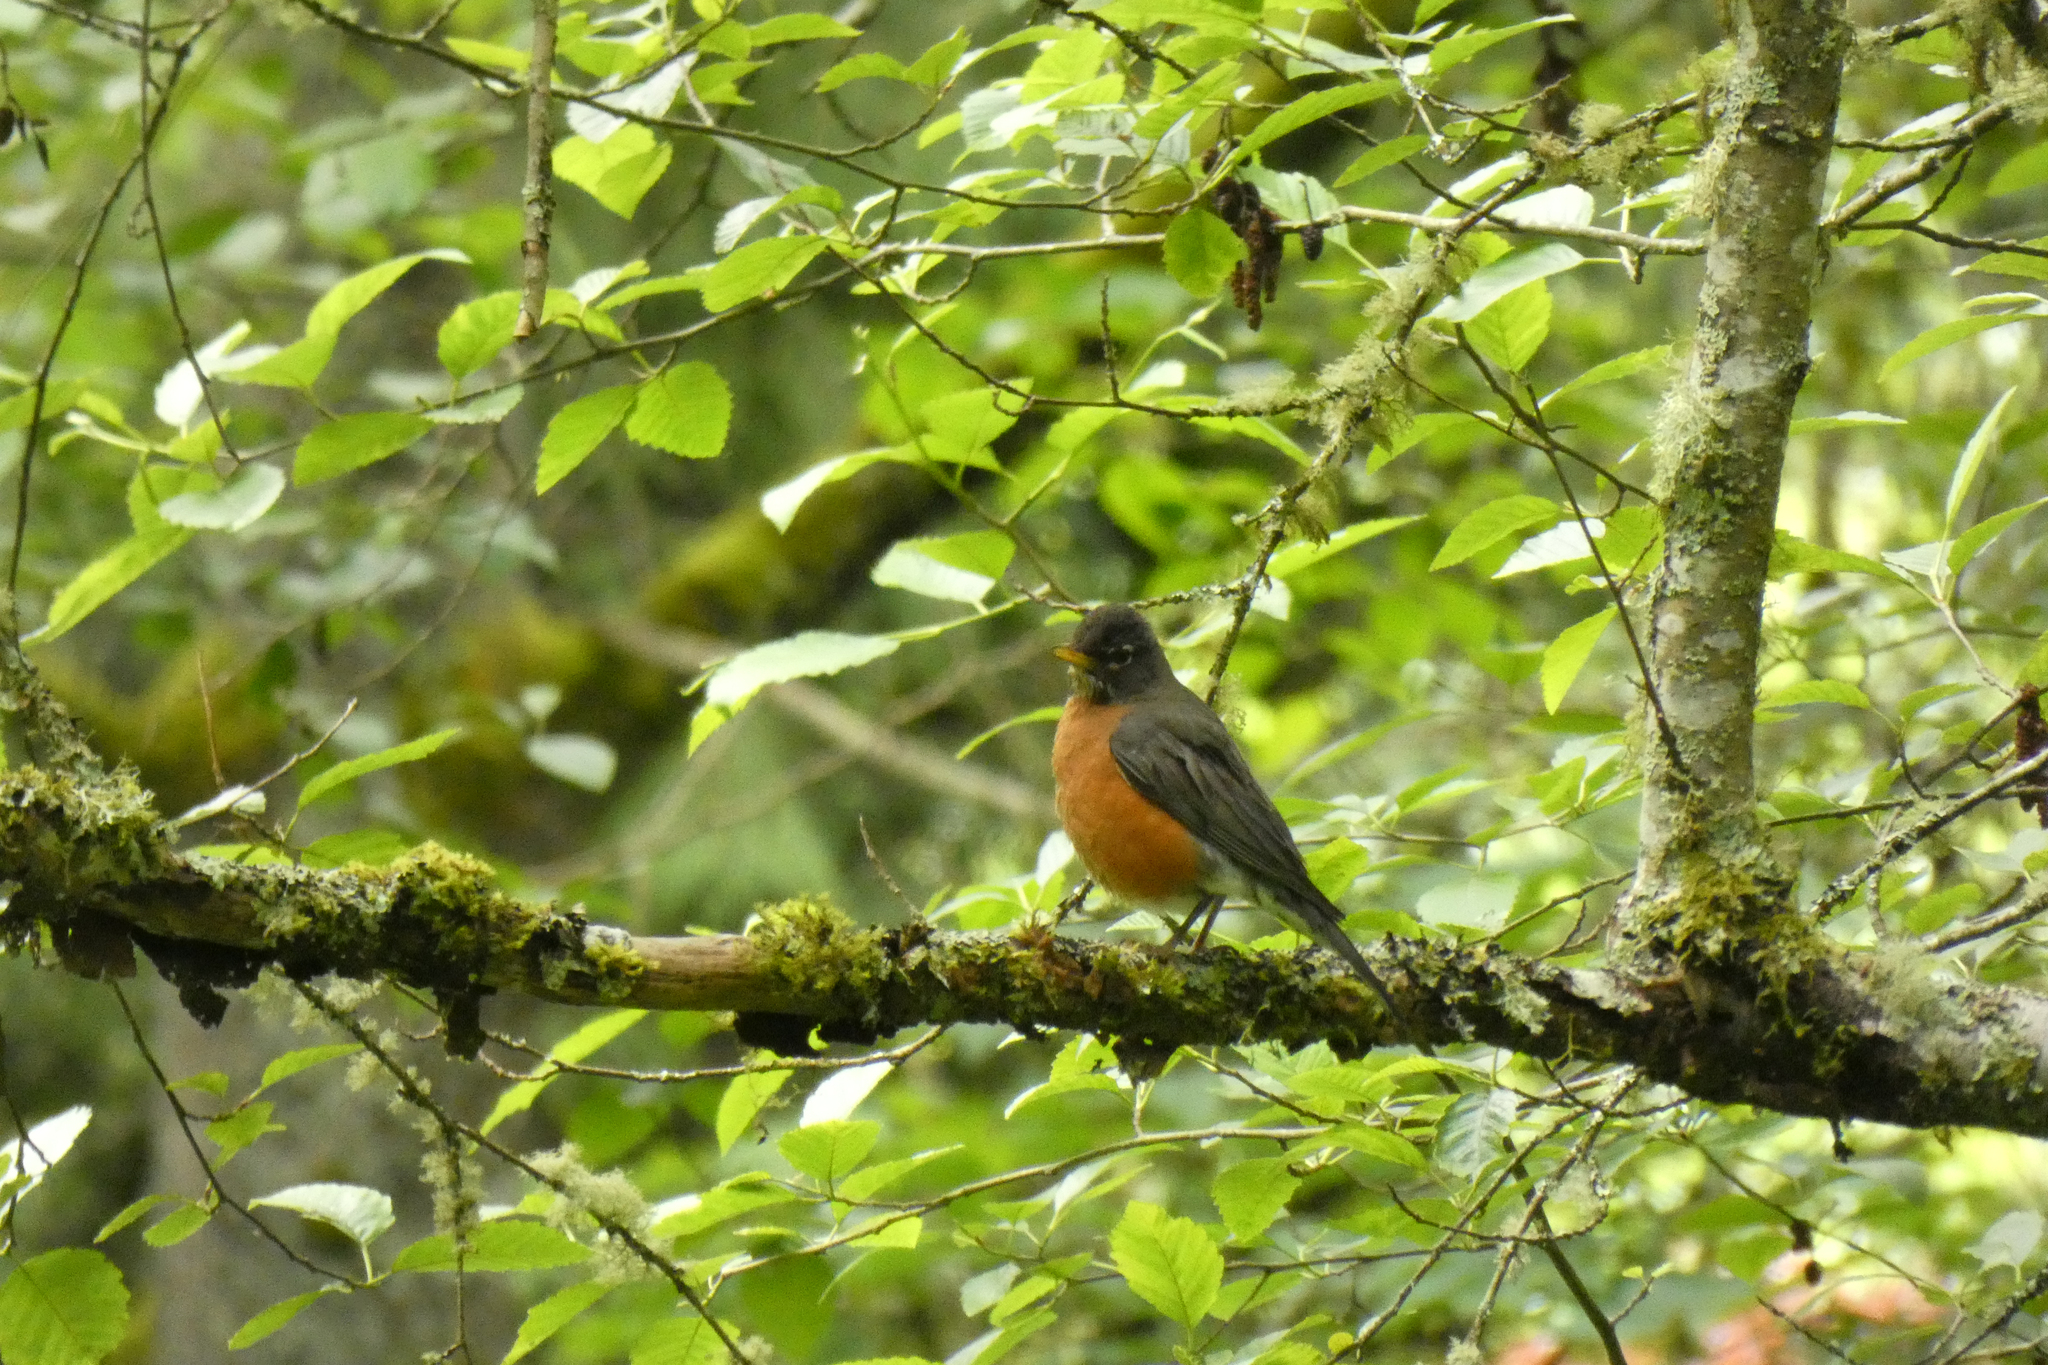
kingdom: Animalia
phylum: Chordata
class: Aves
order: Passeriformes
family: Turdidae
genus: Turdus
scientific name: Turdus migratorius
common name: American robin
